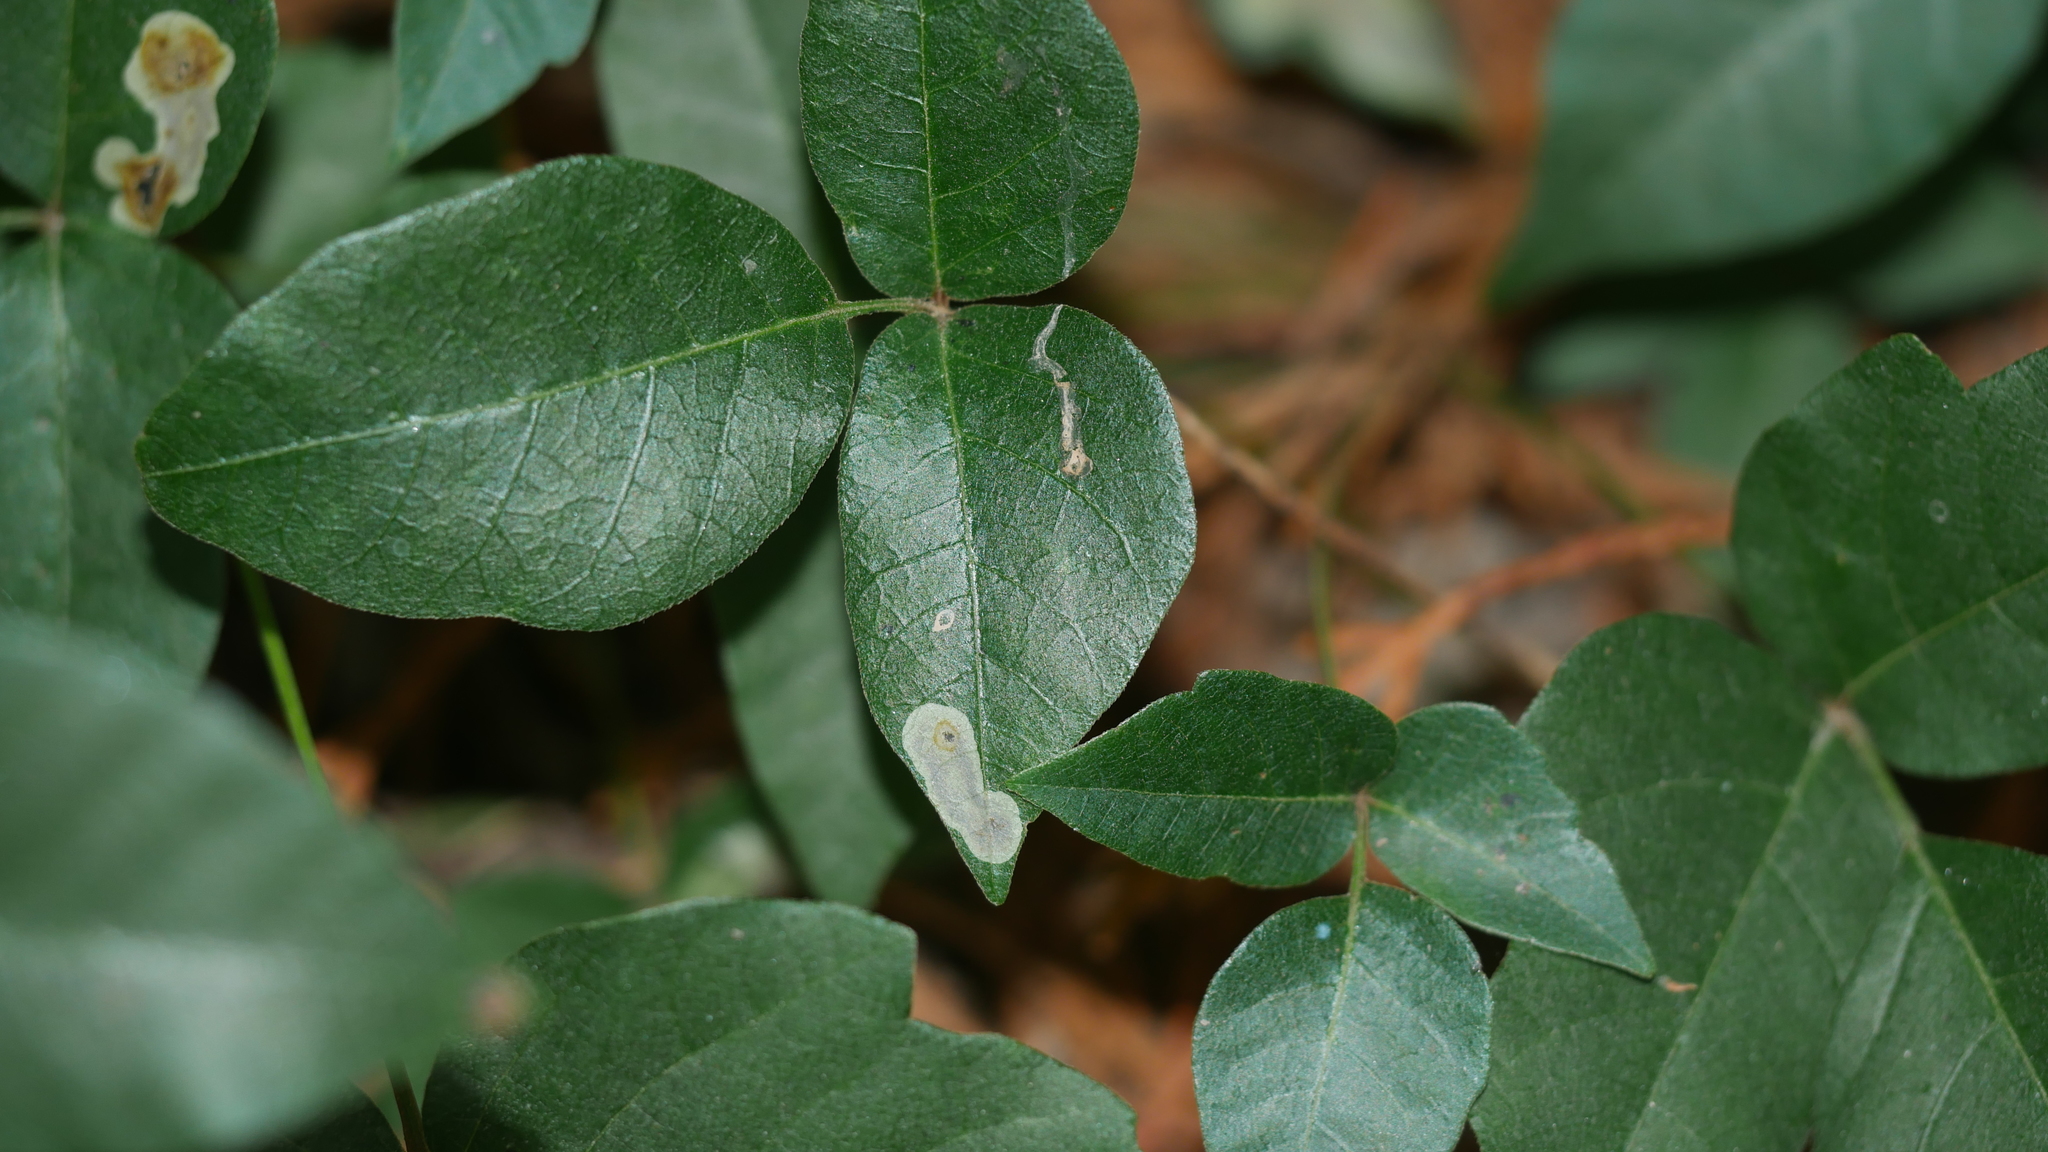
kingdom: Animalia
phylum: Arthropoda
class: Insecta
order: Lepidoptera
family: Gracillariidae
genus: Cameraria
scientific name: Cameraria guttifinitella
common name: Poison ivy leaf-miner moth
